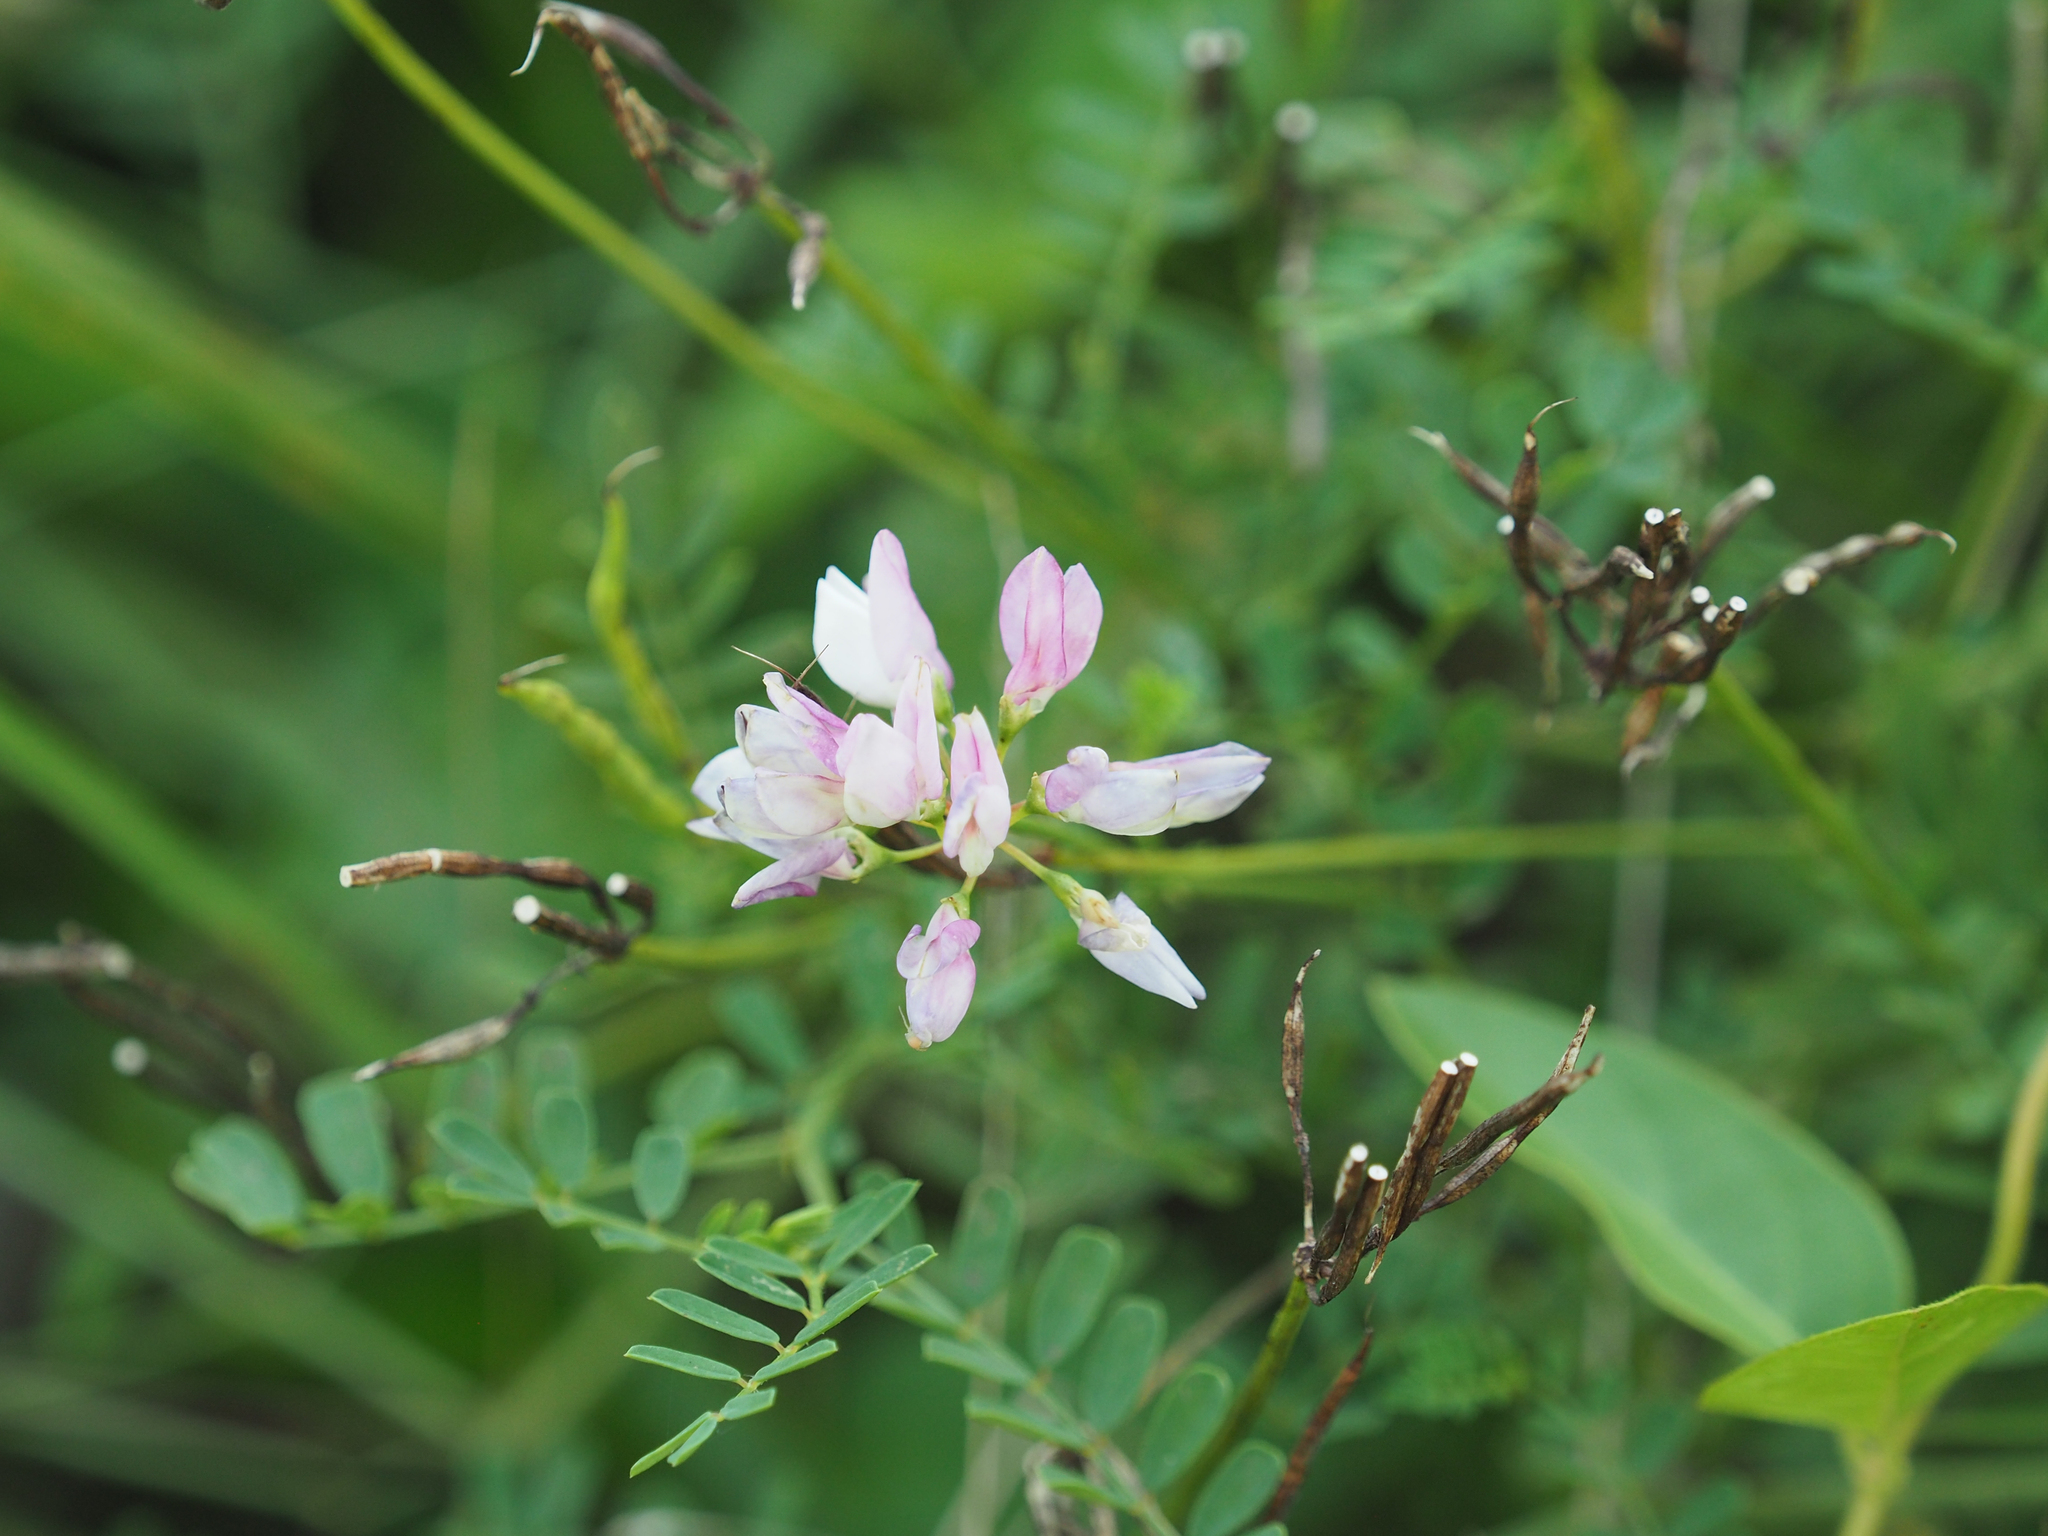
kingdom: Plantae
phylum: Tracheophyta
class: Magnoliopsida
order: Fabales
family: Fabaceae
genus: Coronilla
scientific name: Coronilla varia
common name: Crownvetch
